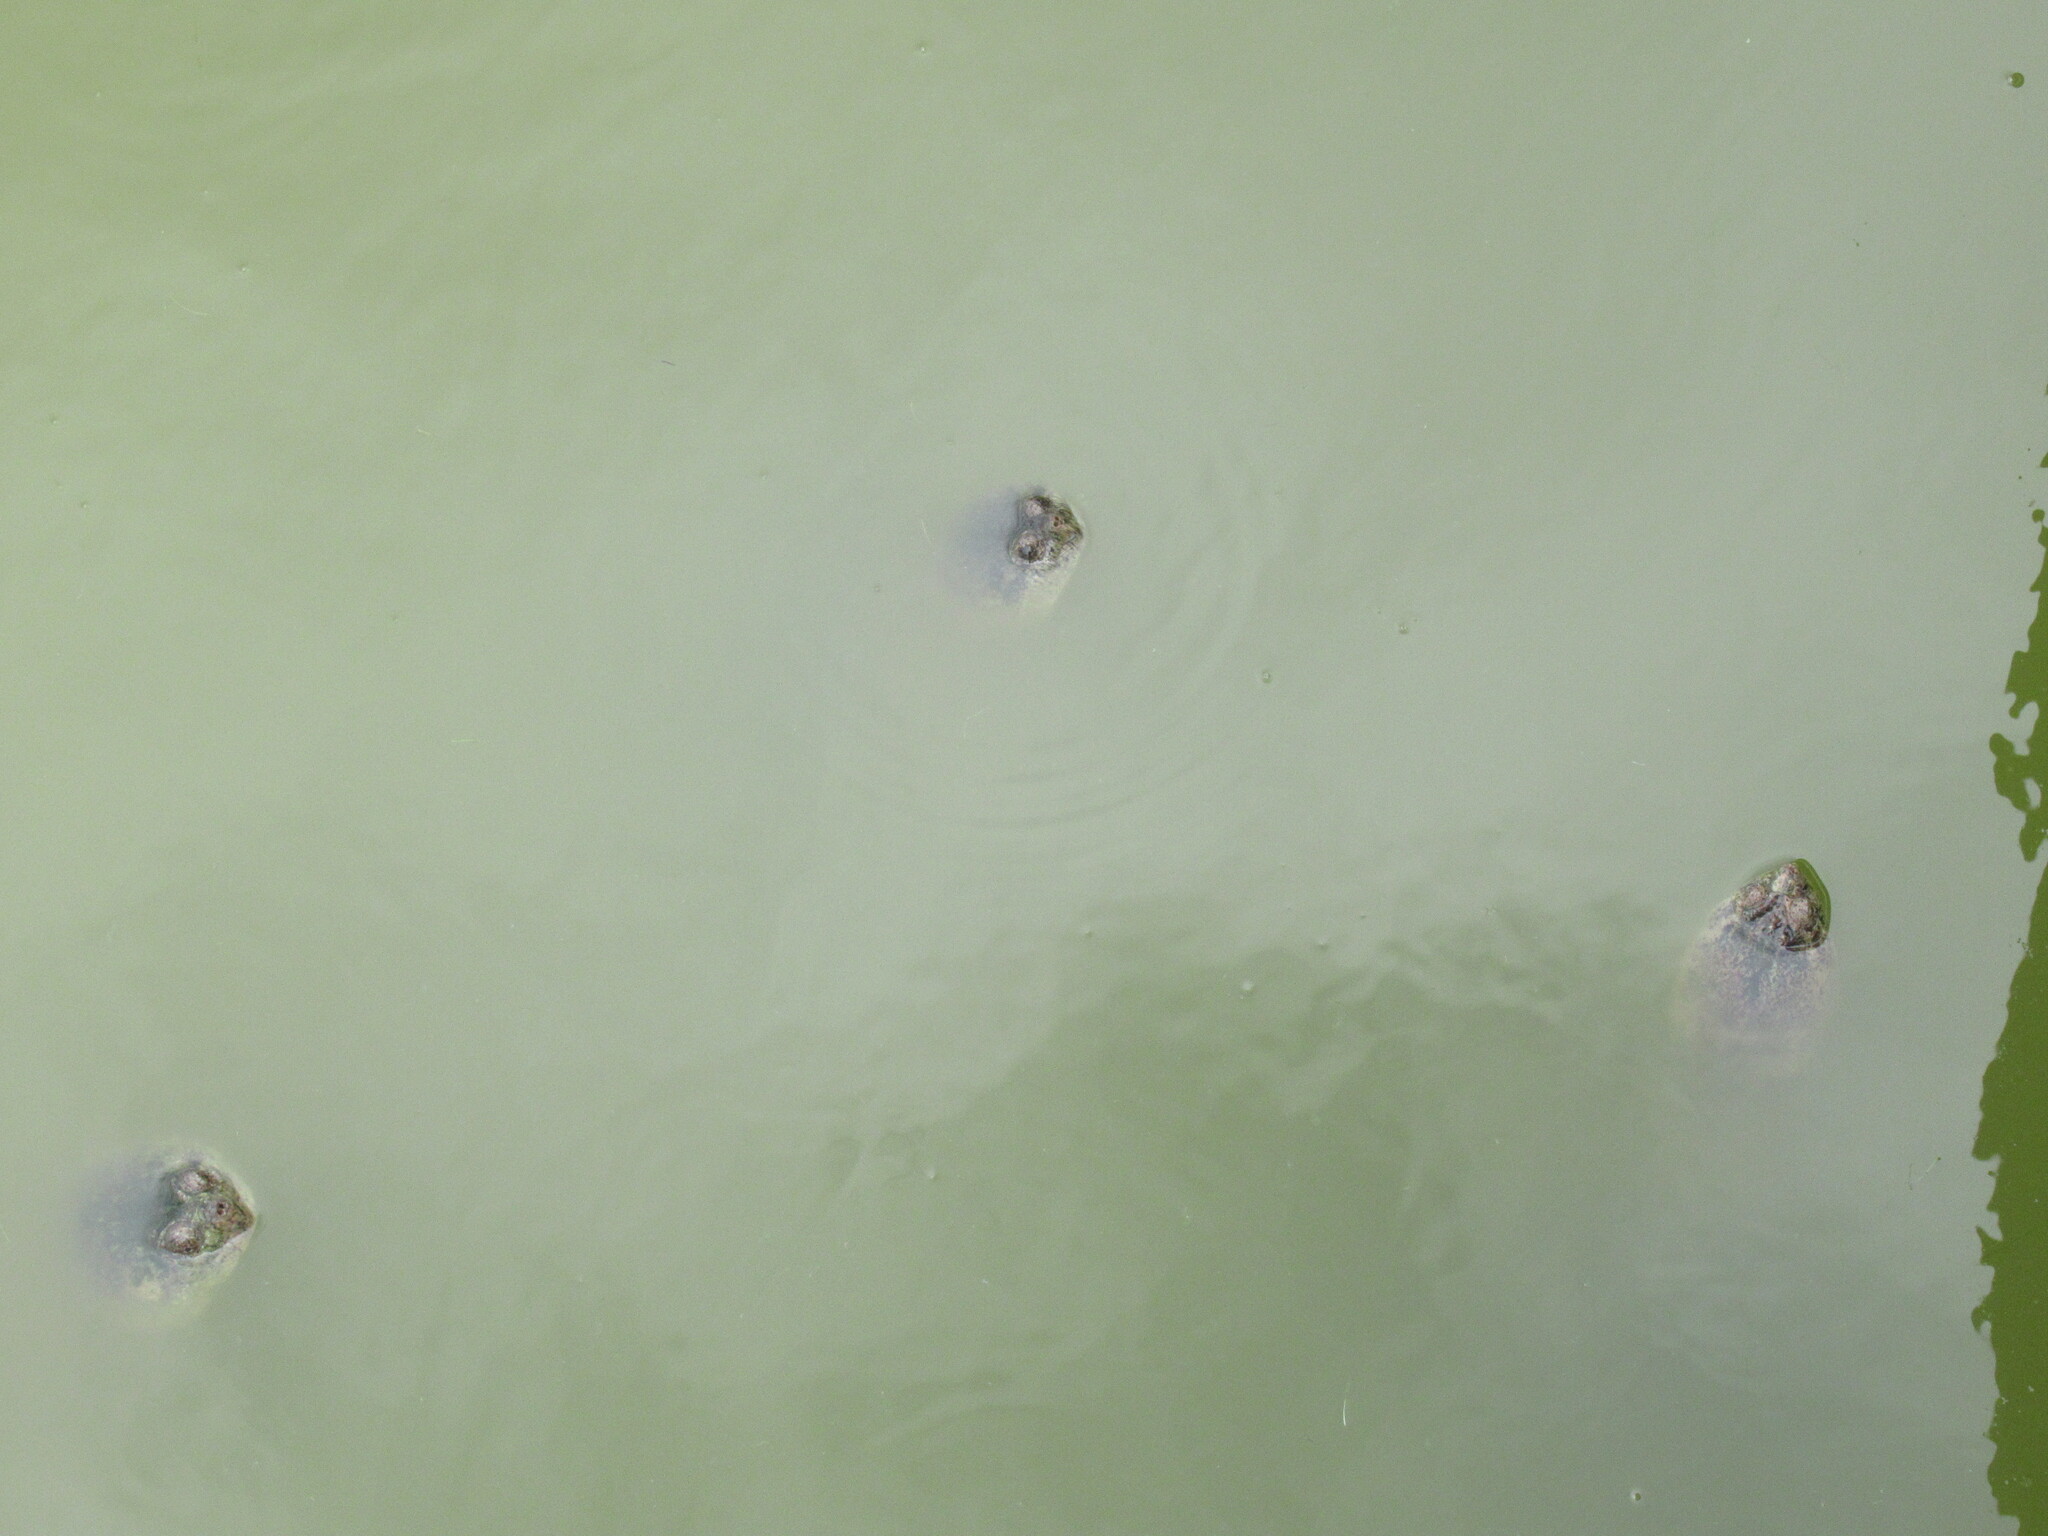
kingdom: Animalia
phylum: Chordata
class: Testudines
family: Chelydridae
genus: Chelydra
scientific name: Chelydra serpentina
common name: Common snapping turtle
